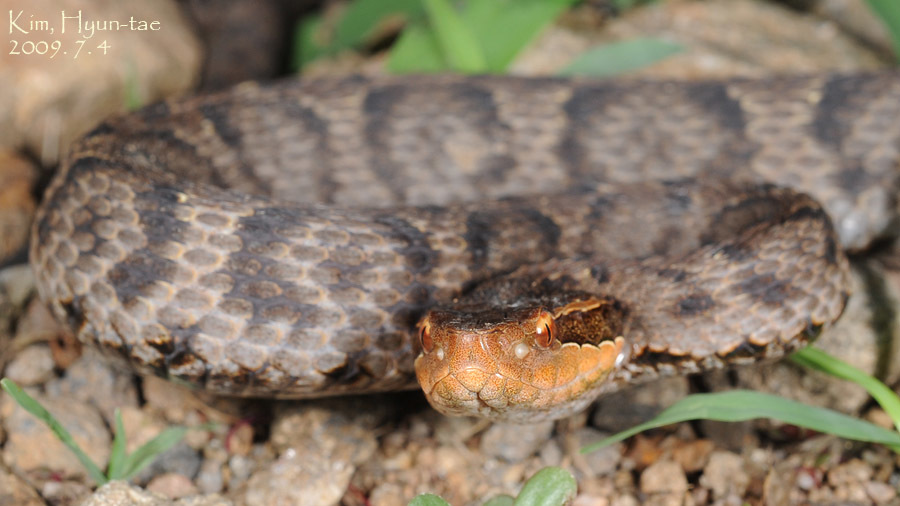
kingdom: Animalia
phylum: Chordata
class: Squamata
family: Viperidae
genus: Gloydius
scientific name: Gloydius ussuriensis
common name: Ussuri mamushi
